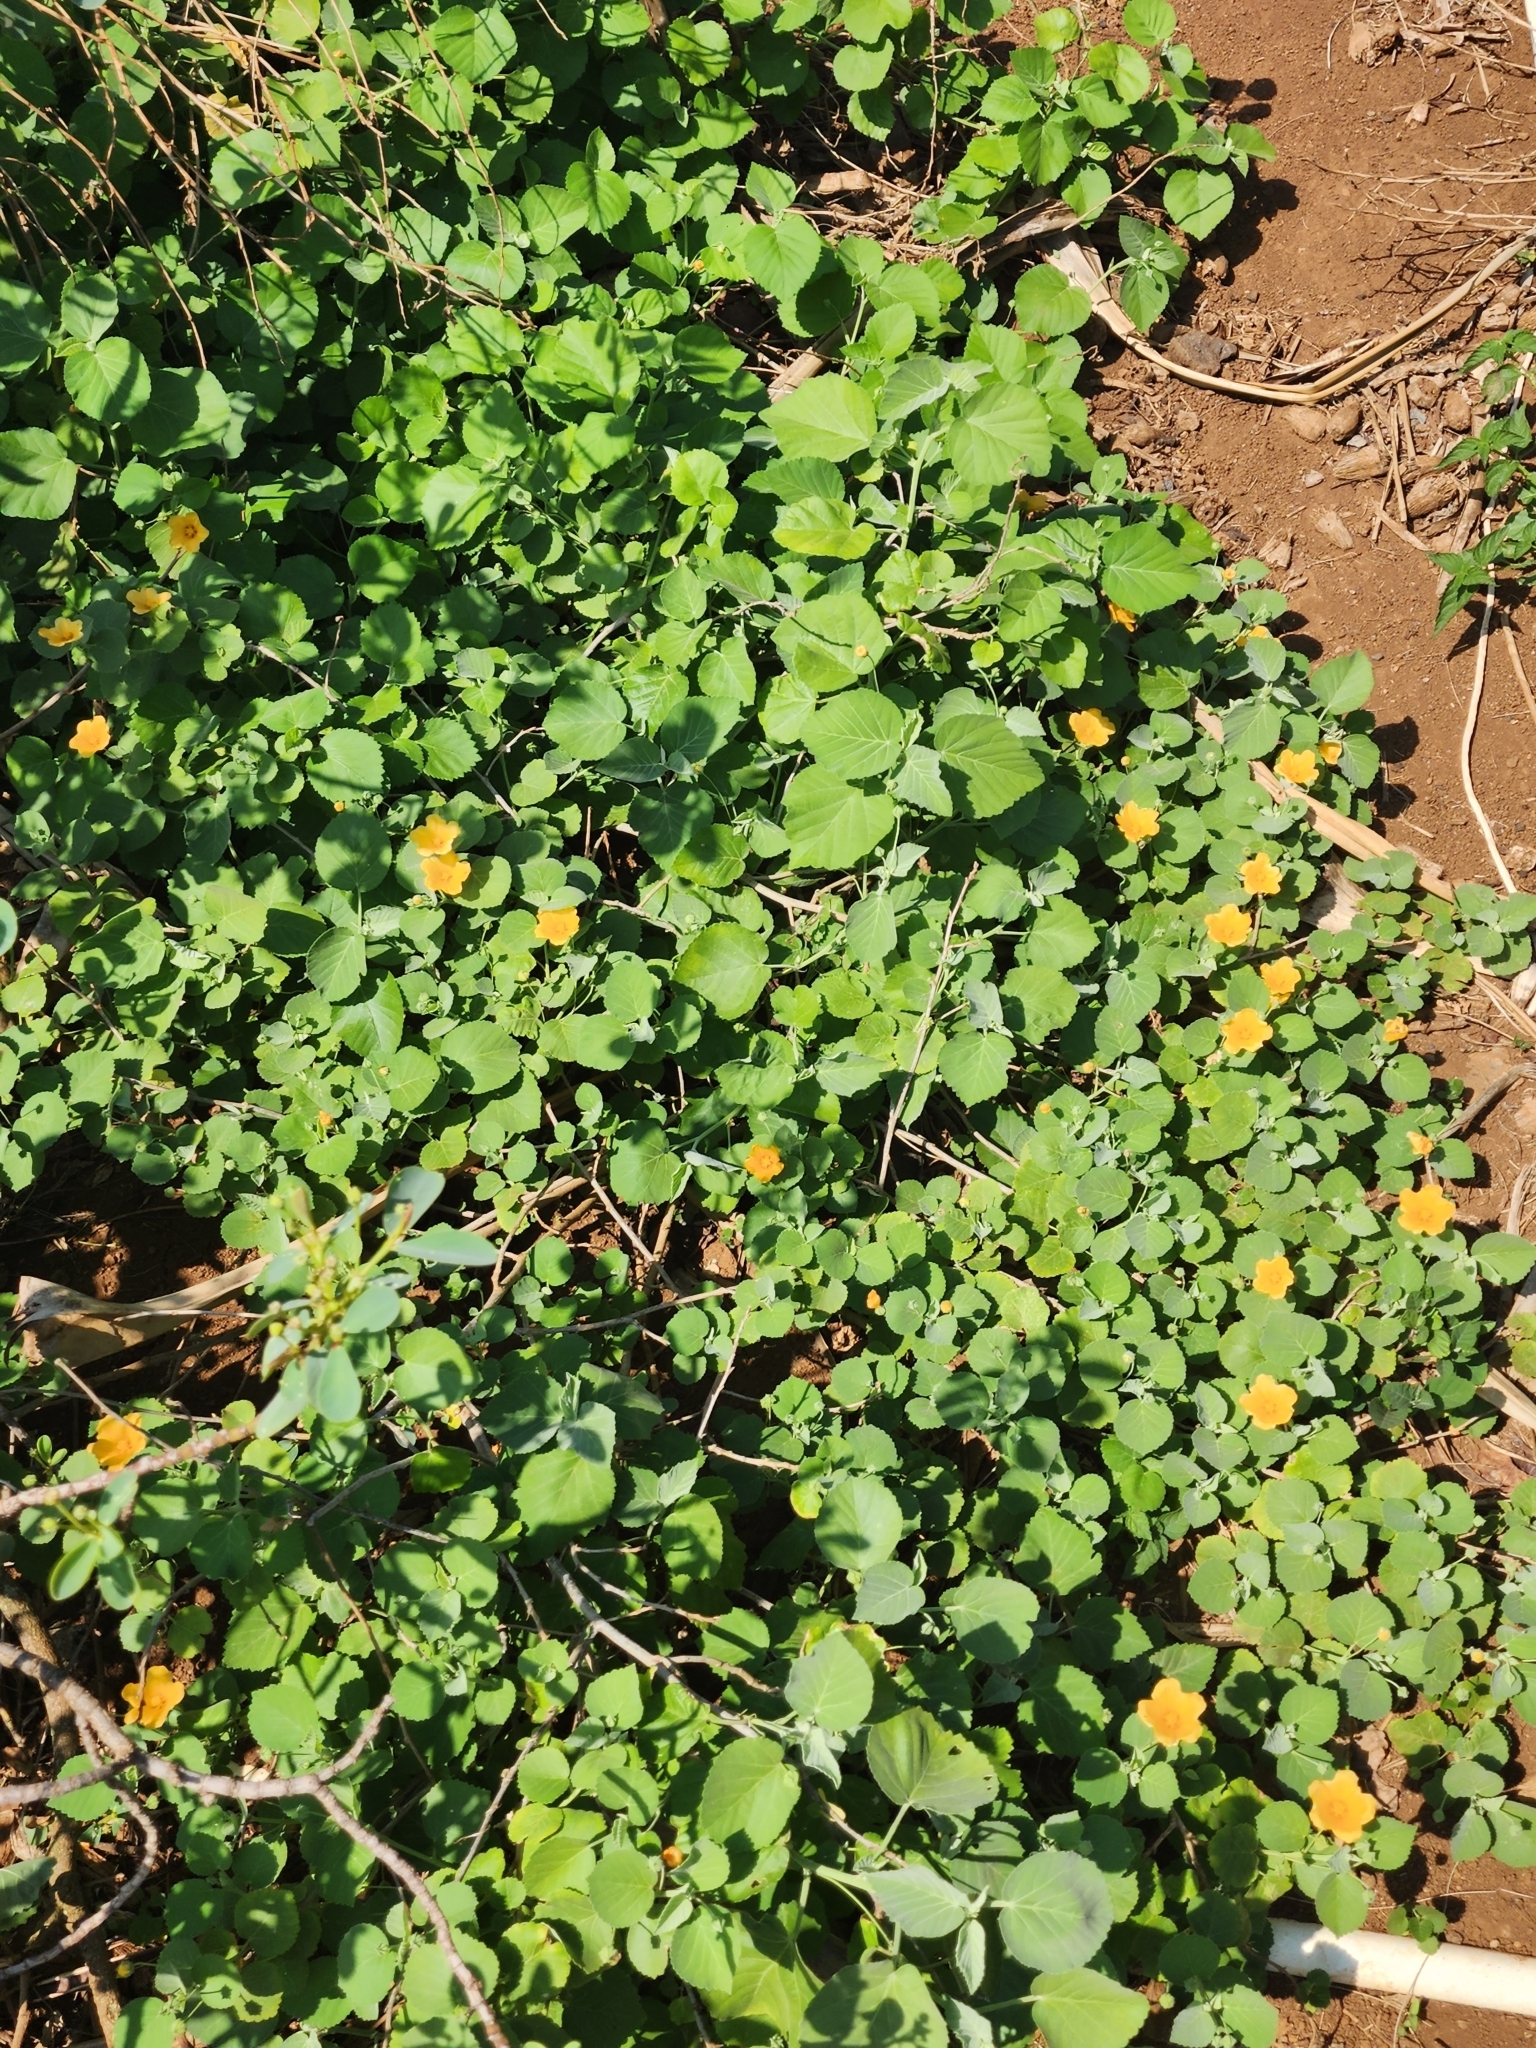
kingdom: Plantae
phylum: Tracheophyta
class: Magnoliopsida
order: Malvales
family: Malvaceae
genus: Sida
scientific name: Sida fallax
